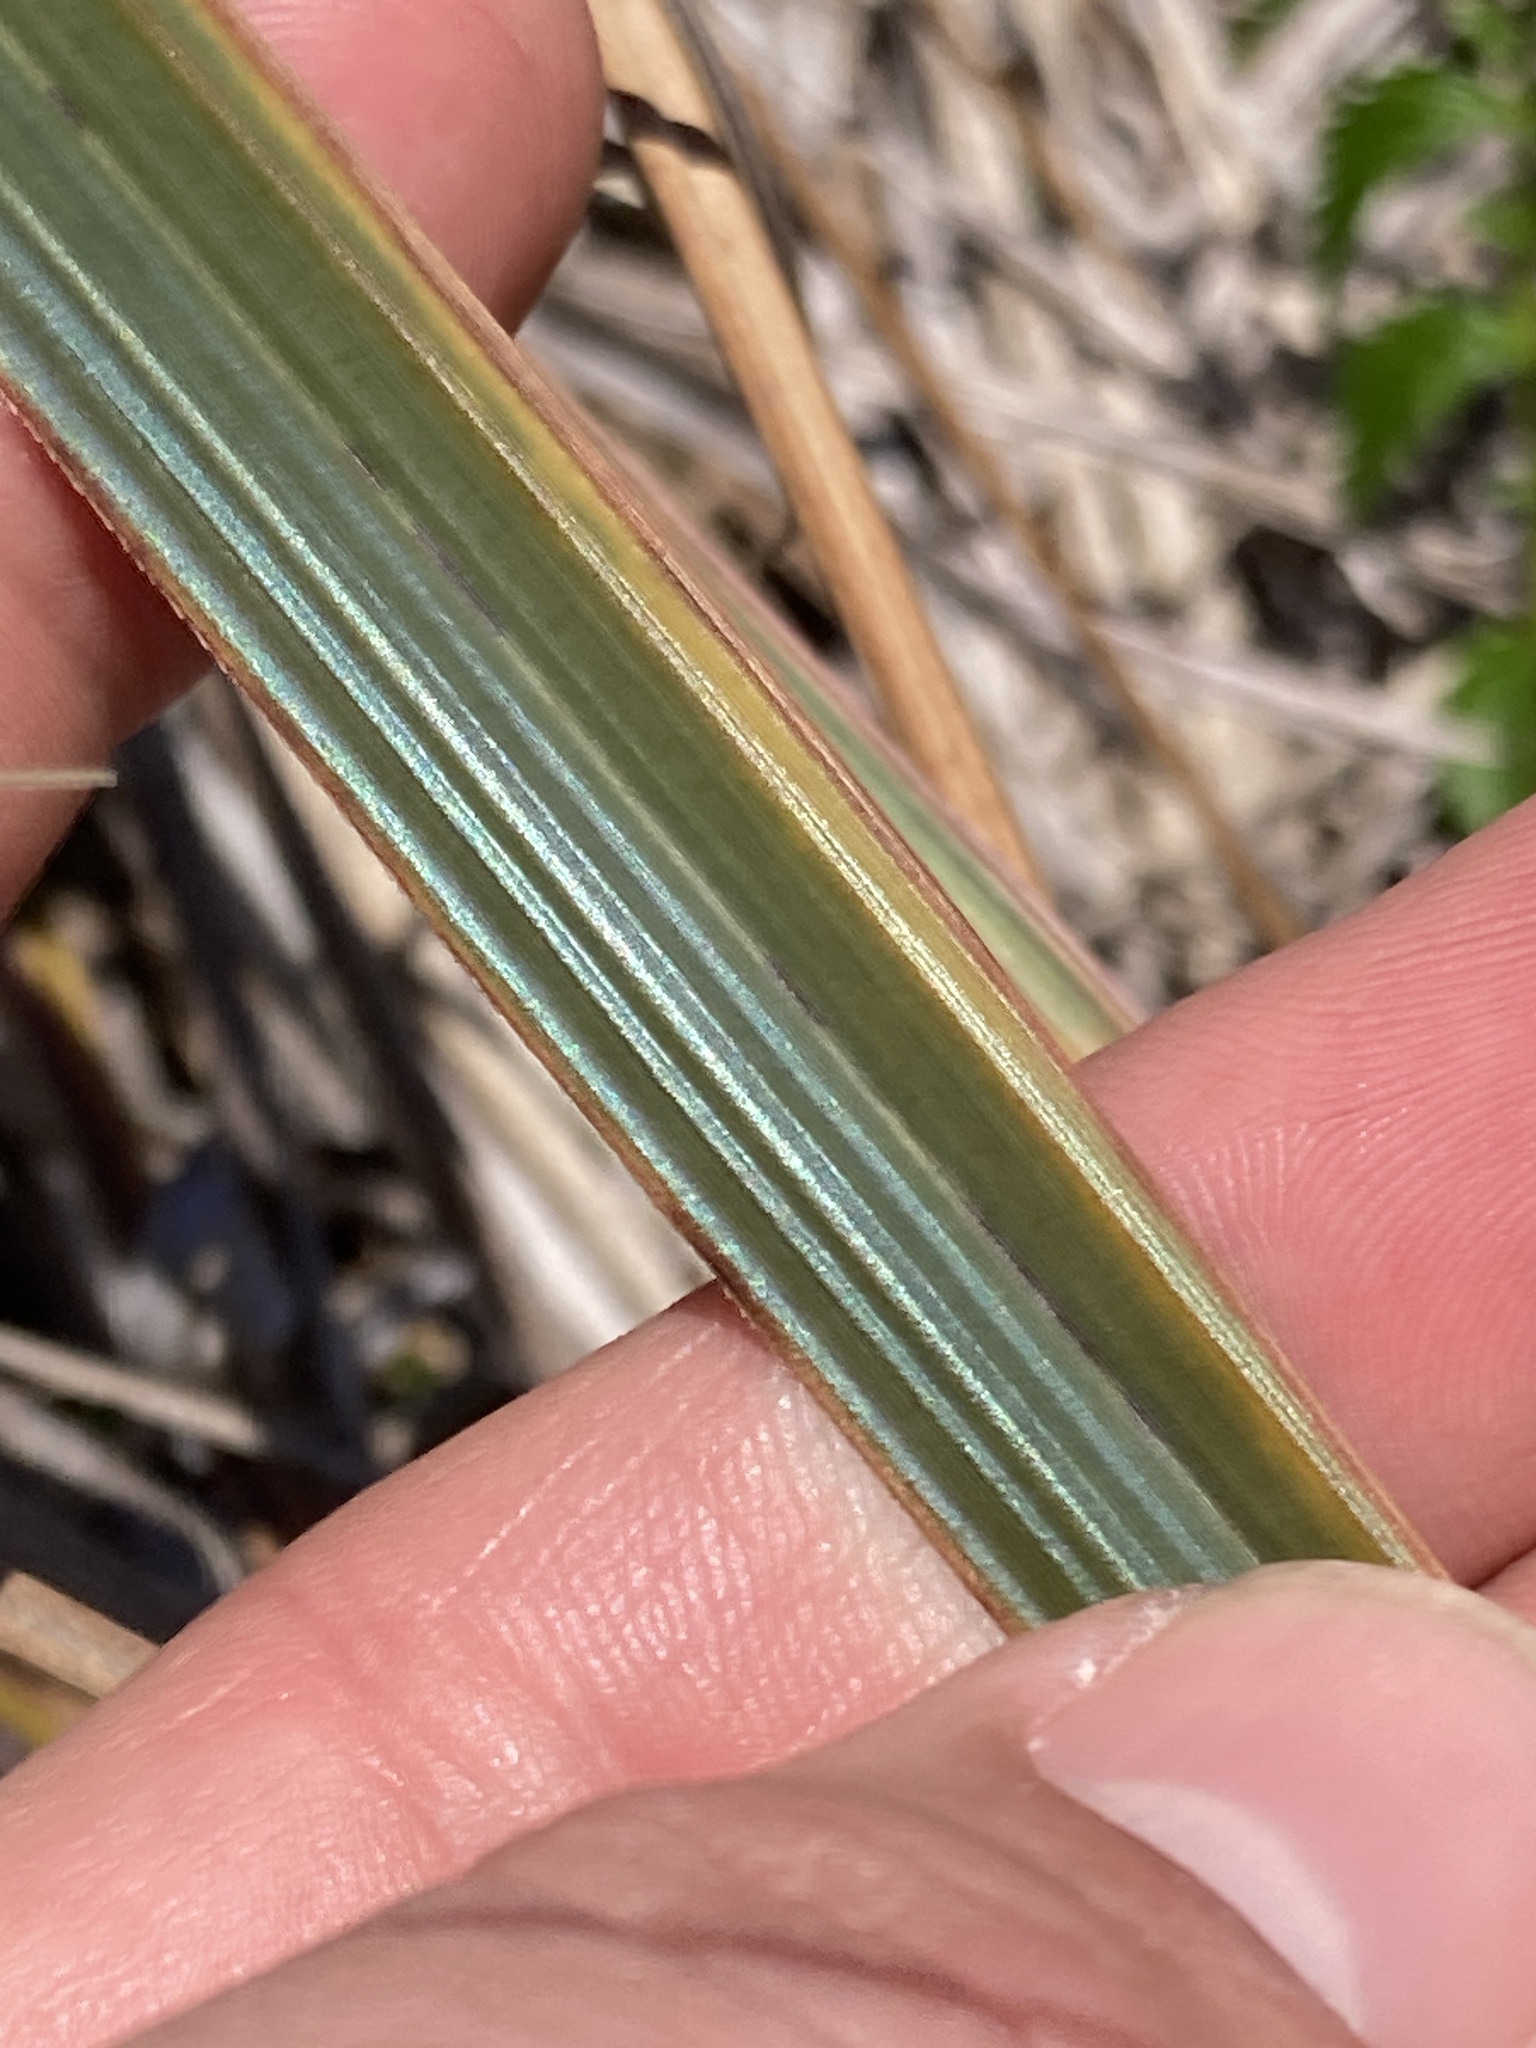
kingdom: Plantae
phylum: Tracheophyta
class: Liliopsida
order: Poales
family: Cyperaceae
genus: Carex
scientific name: Carex spissa
